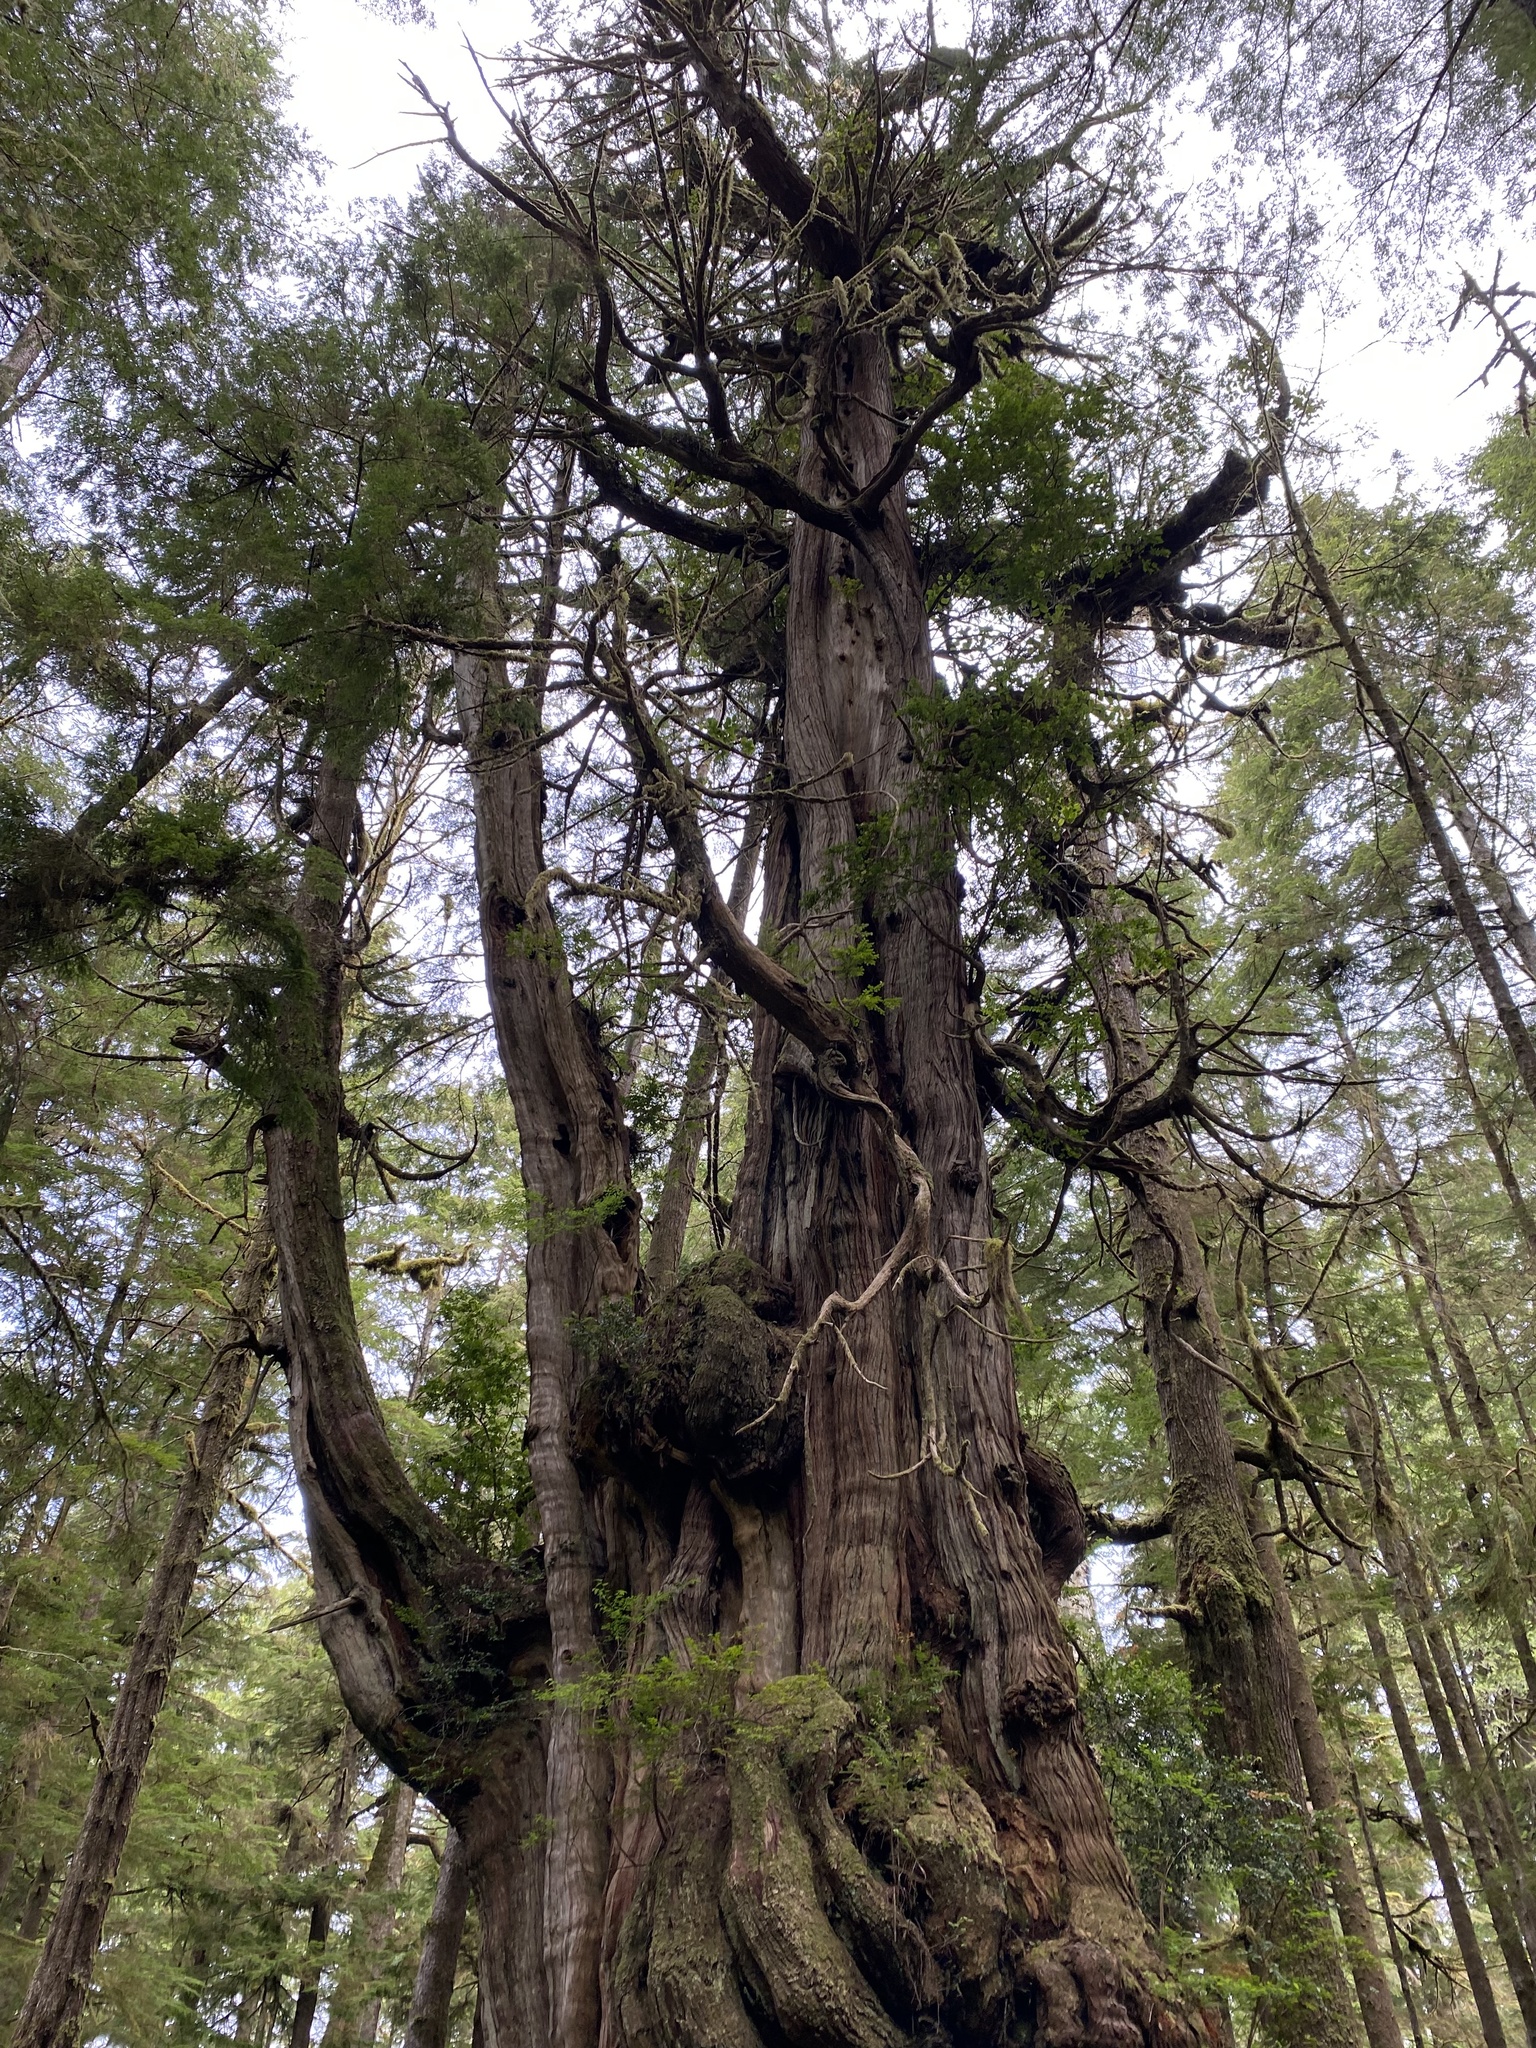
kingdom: Plantae
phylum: Tracheophyta
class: Pinopsida
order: Pinales
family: Cupressaceae
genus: Thuja
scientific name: Thuja plicata
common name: Western red-cedar
